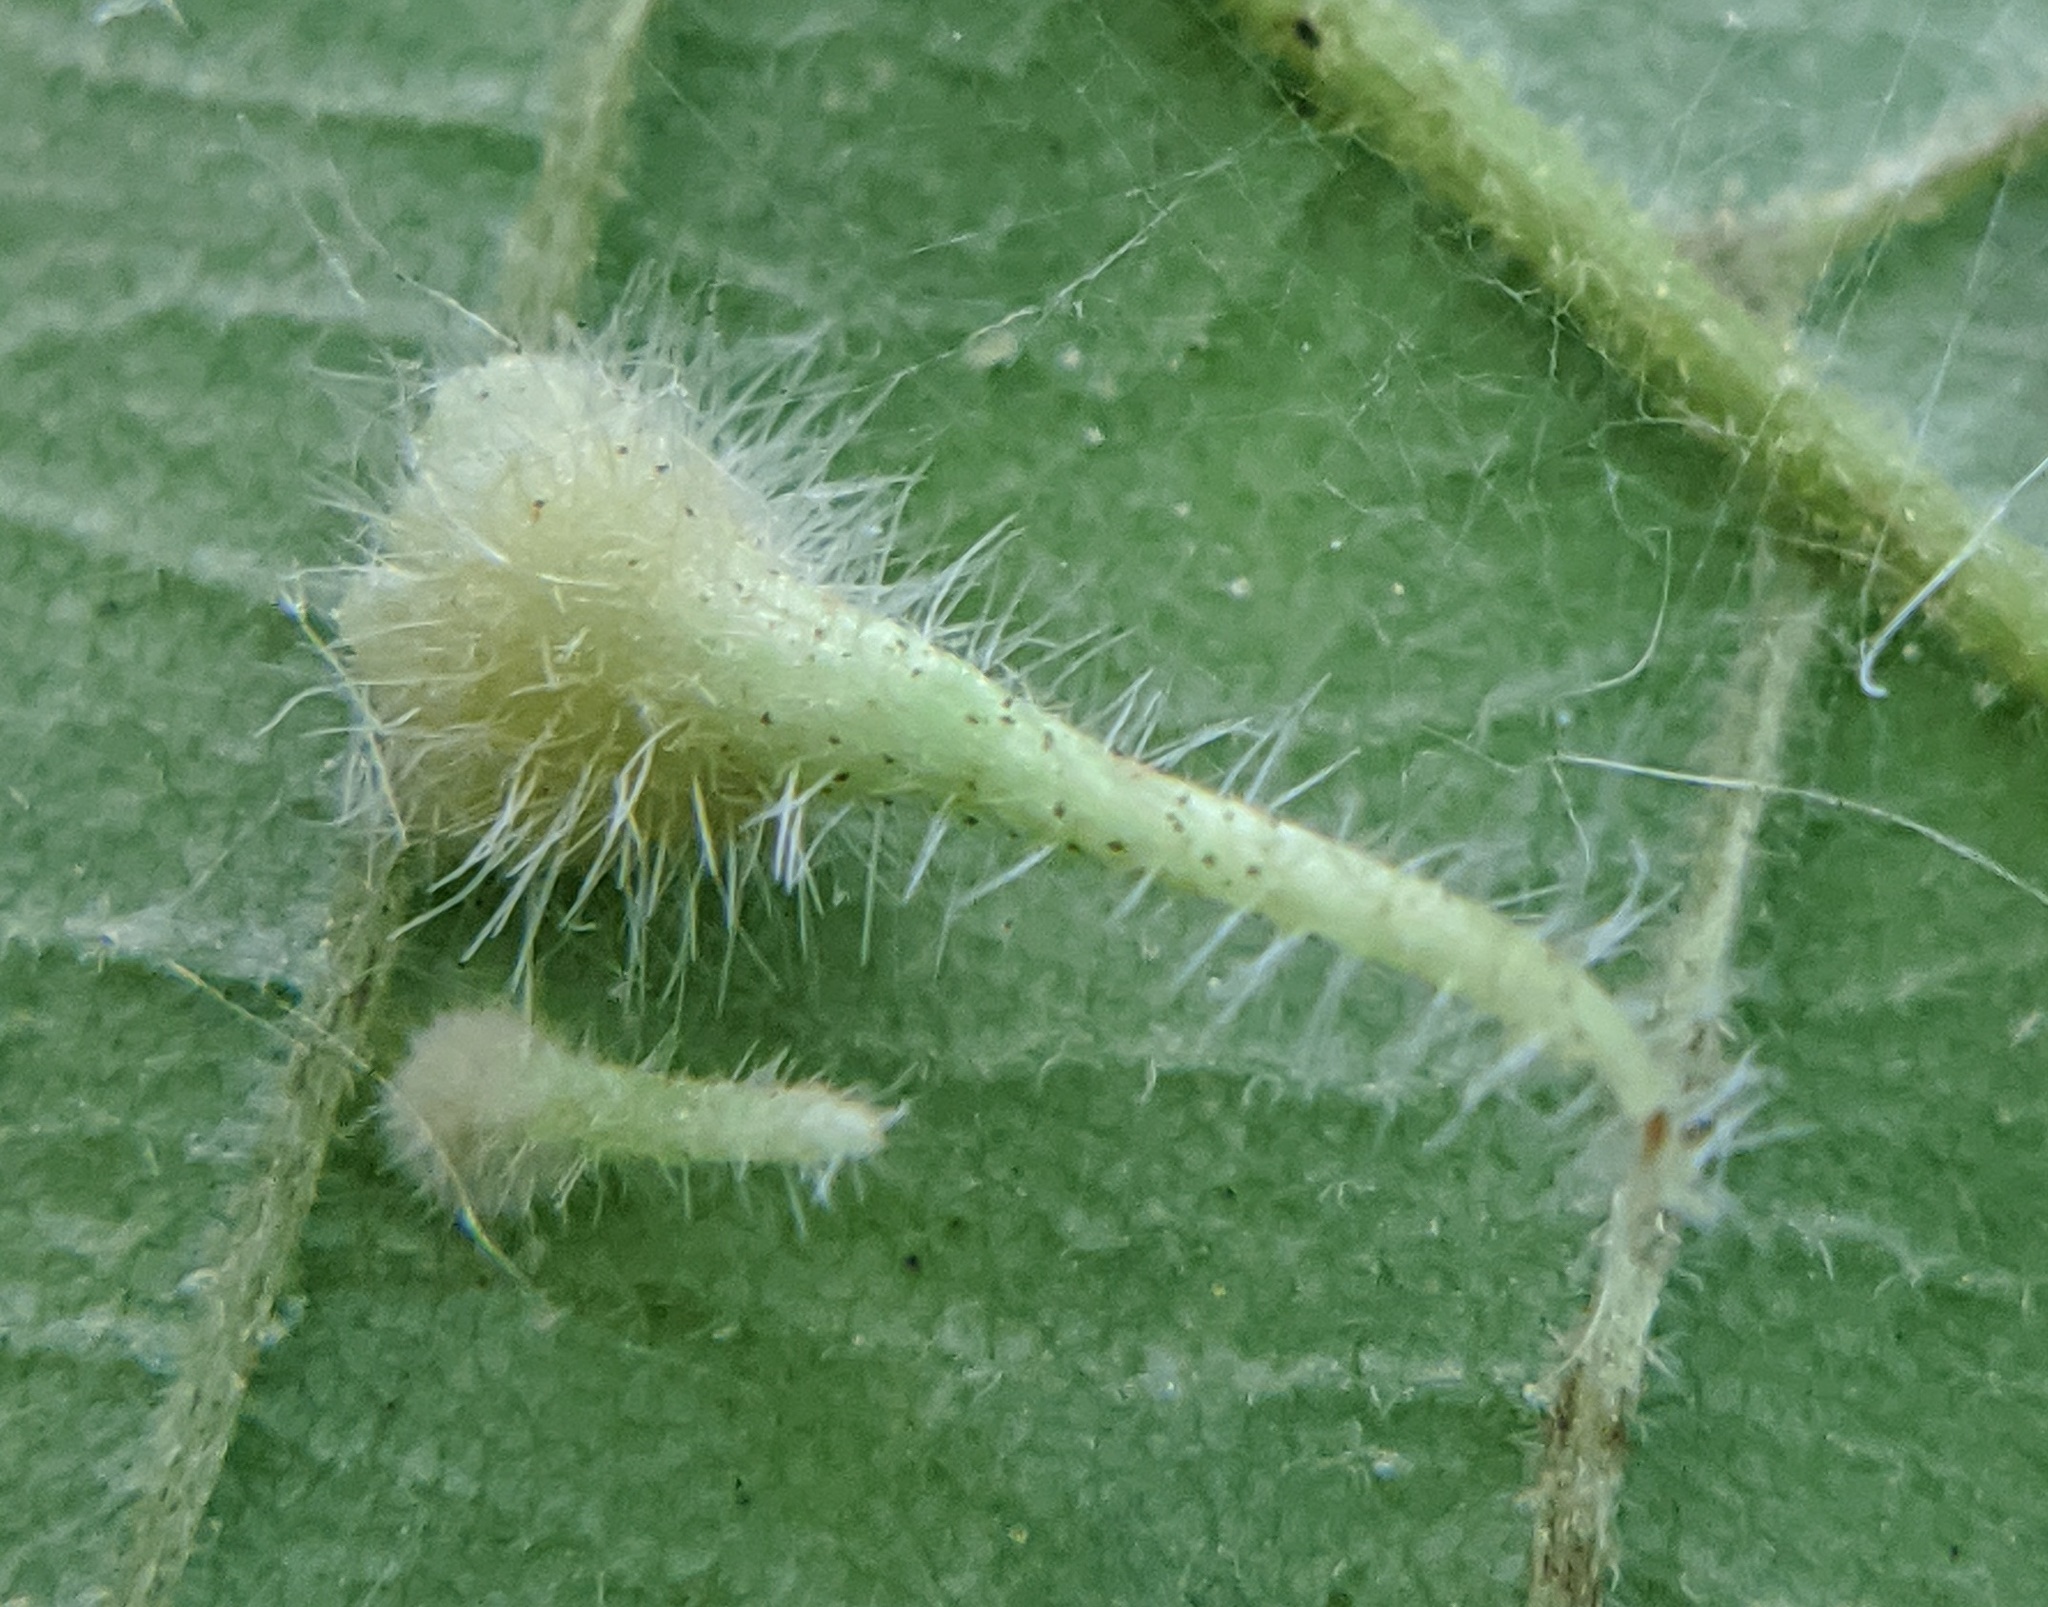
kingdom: Animalia
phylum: Arthropoda
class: Insecta
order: Diptera
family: Cecidomyiidae
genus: Caryomyia
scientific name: Caryomyia inclinata
